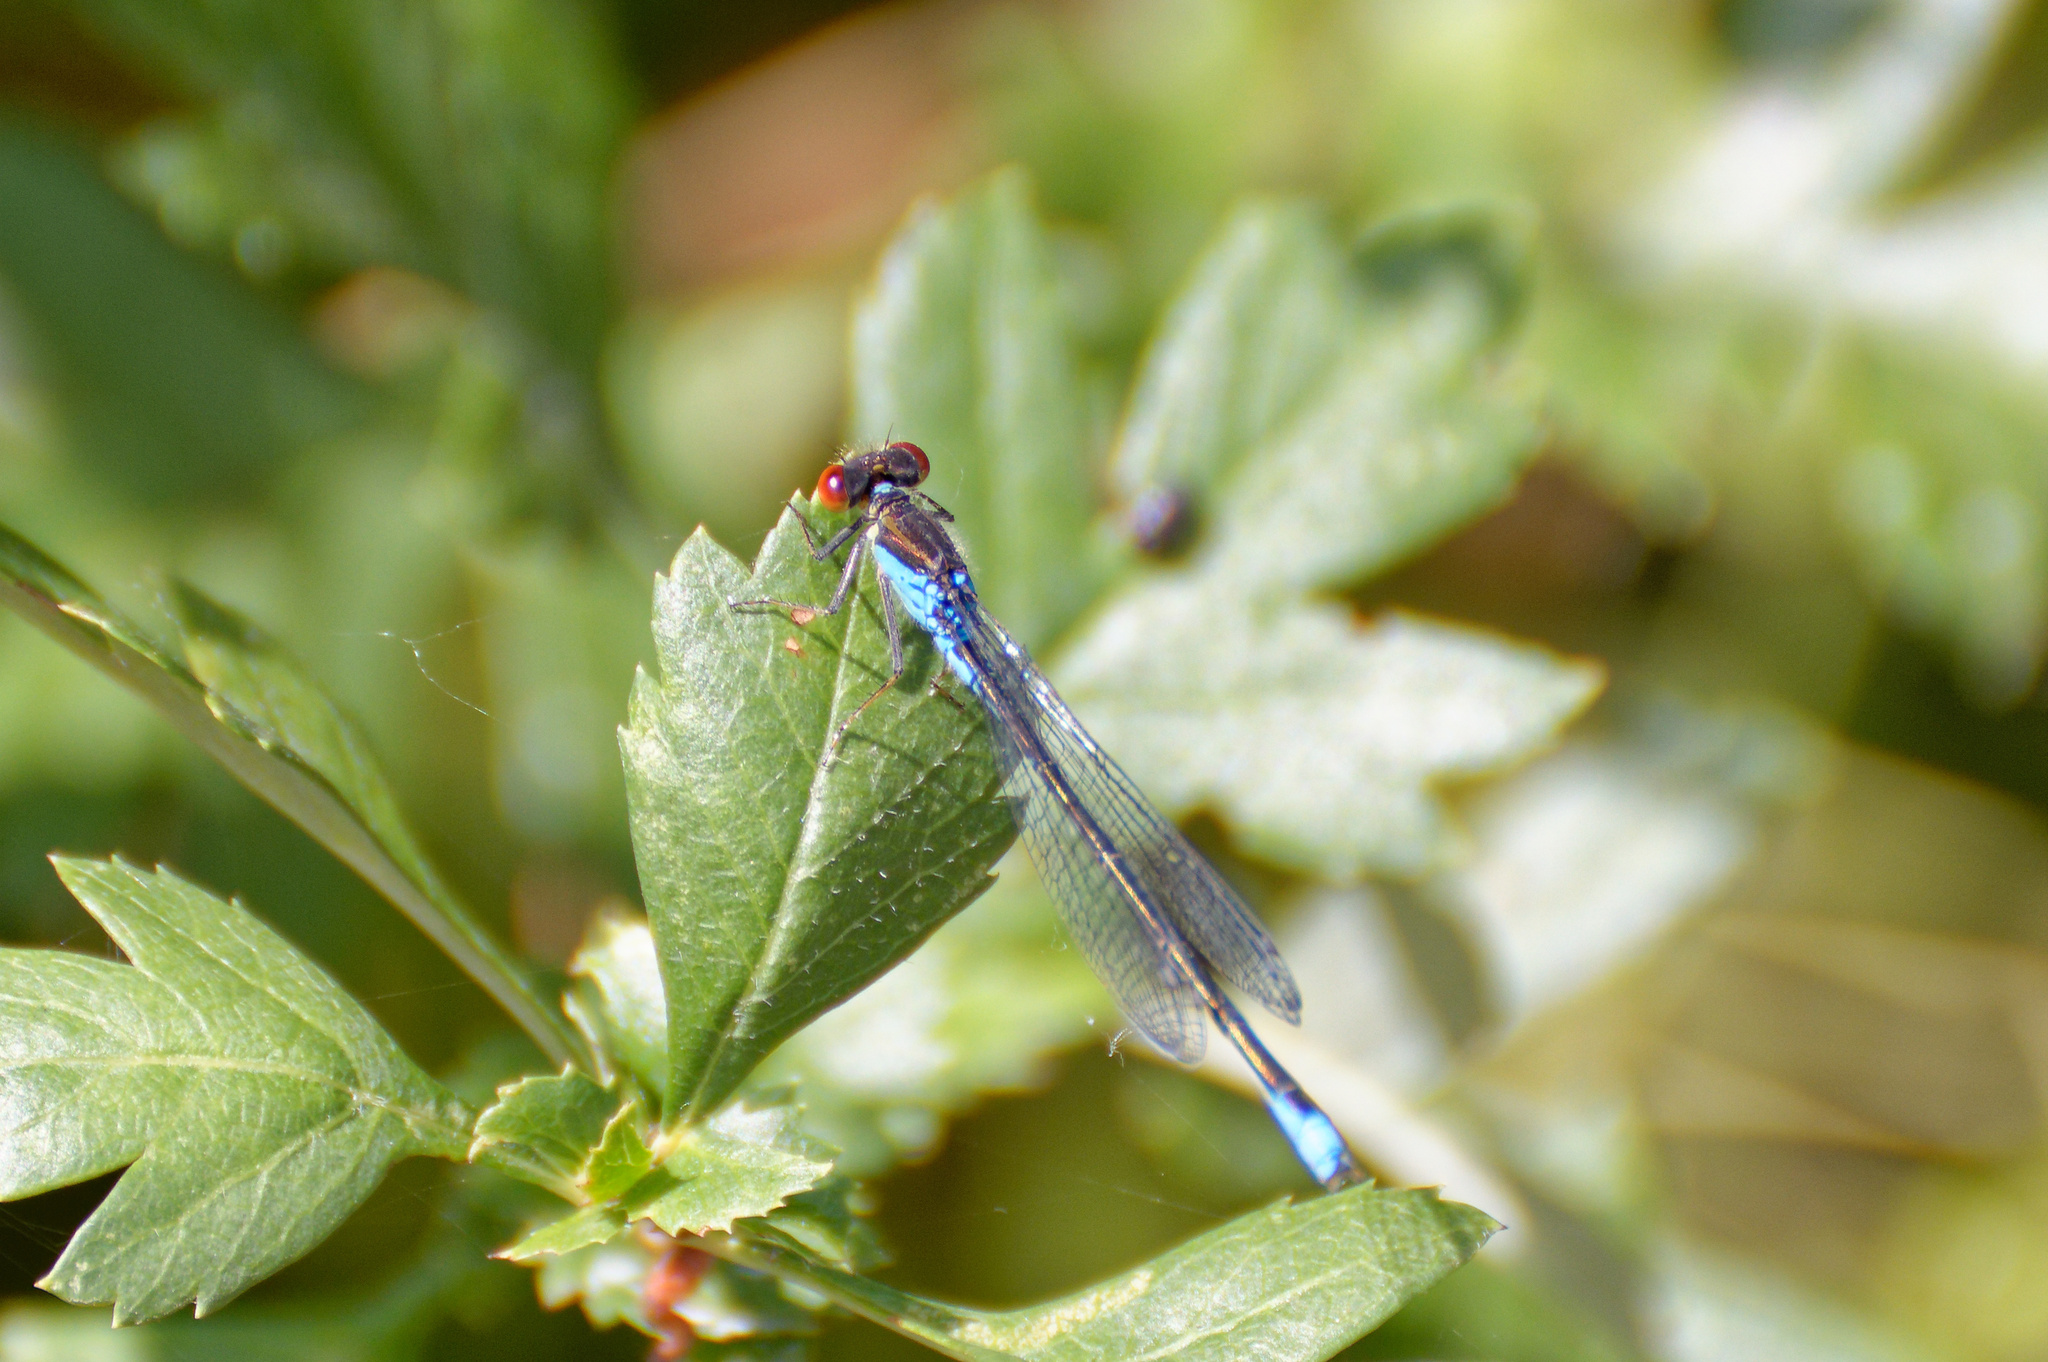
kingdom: Animalia
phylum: Arthropoda
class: Insecta
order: Odonata
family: Coenagrionidae
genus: Erythromma
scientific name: Erythromma viridulum
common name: Small red-eyed damselfly
